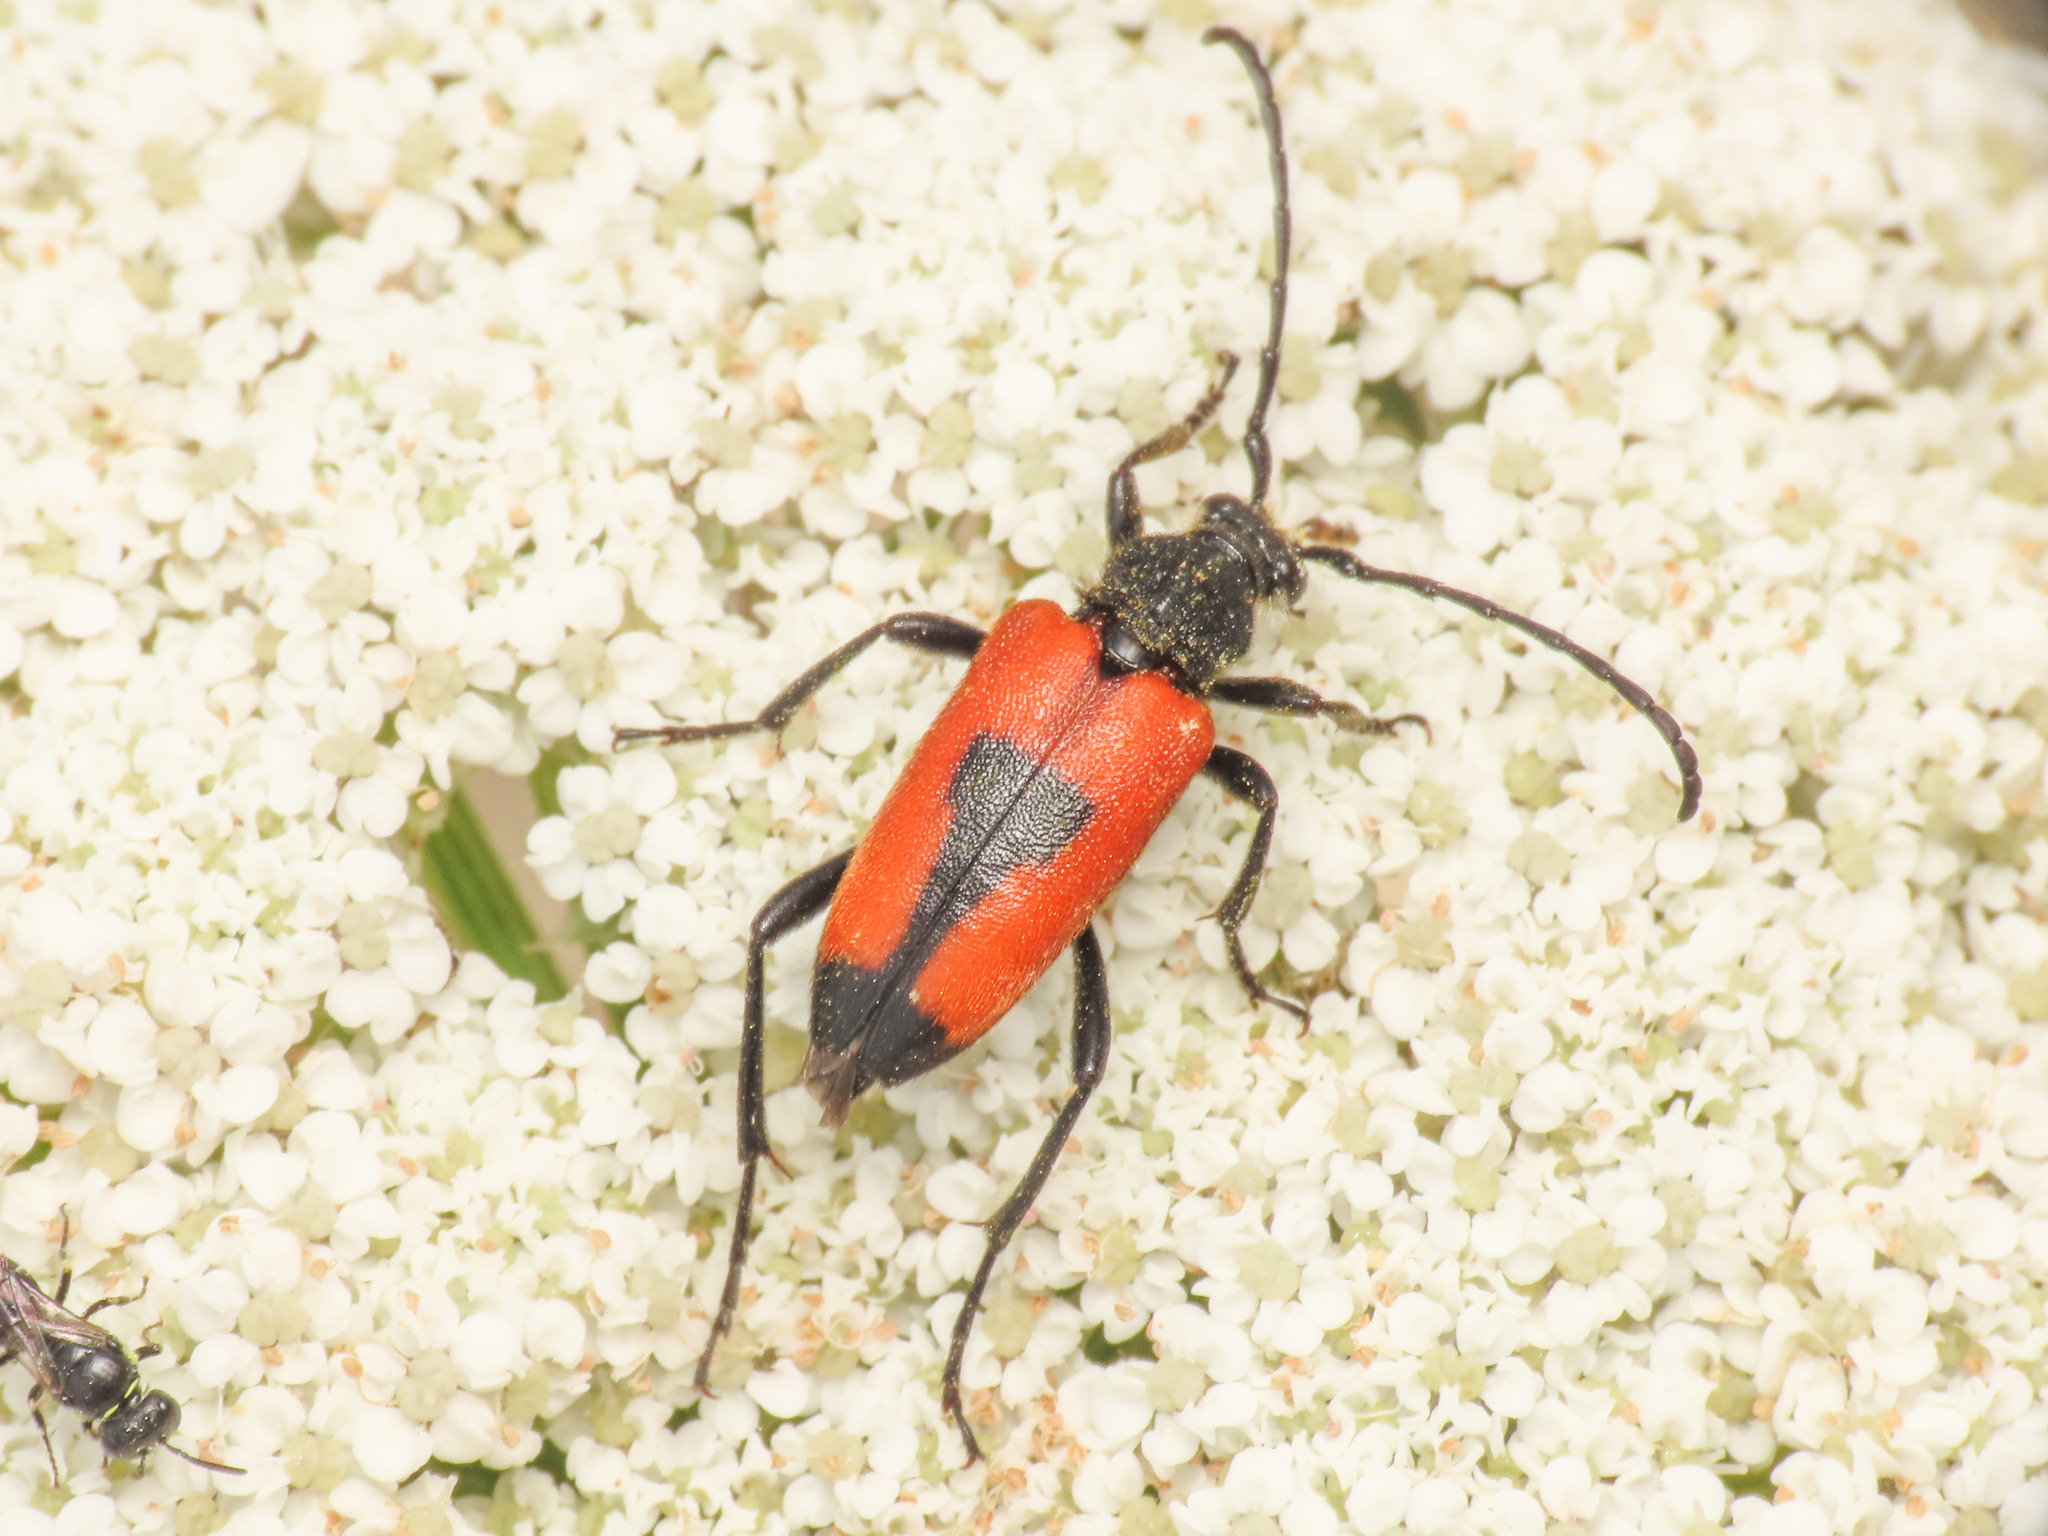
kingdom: Animalia
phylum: Arthropoda
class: Insecta
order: Coleoptera
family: Cerambycidae
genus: Stictoleptura
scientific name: Stictoleptura cordigera
